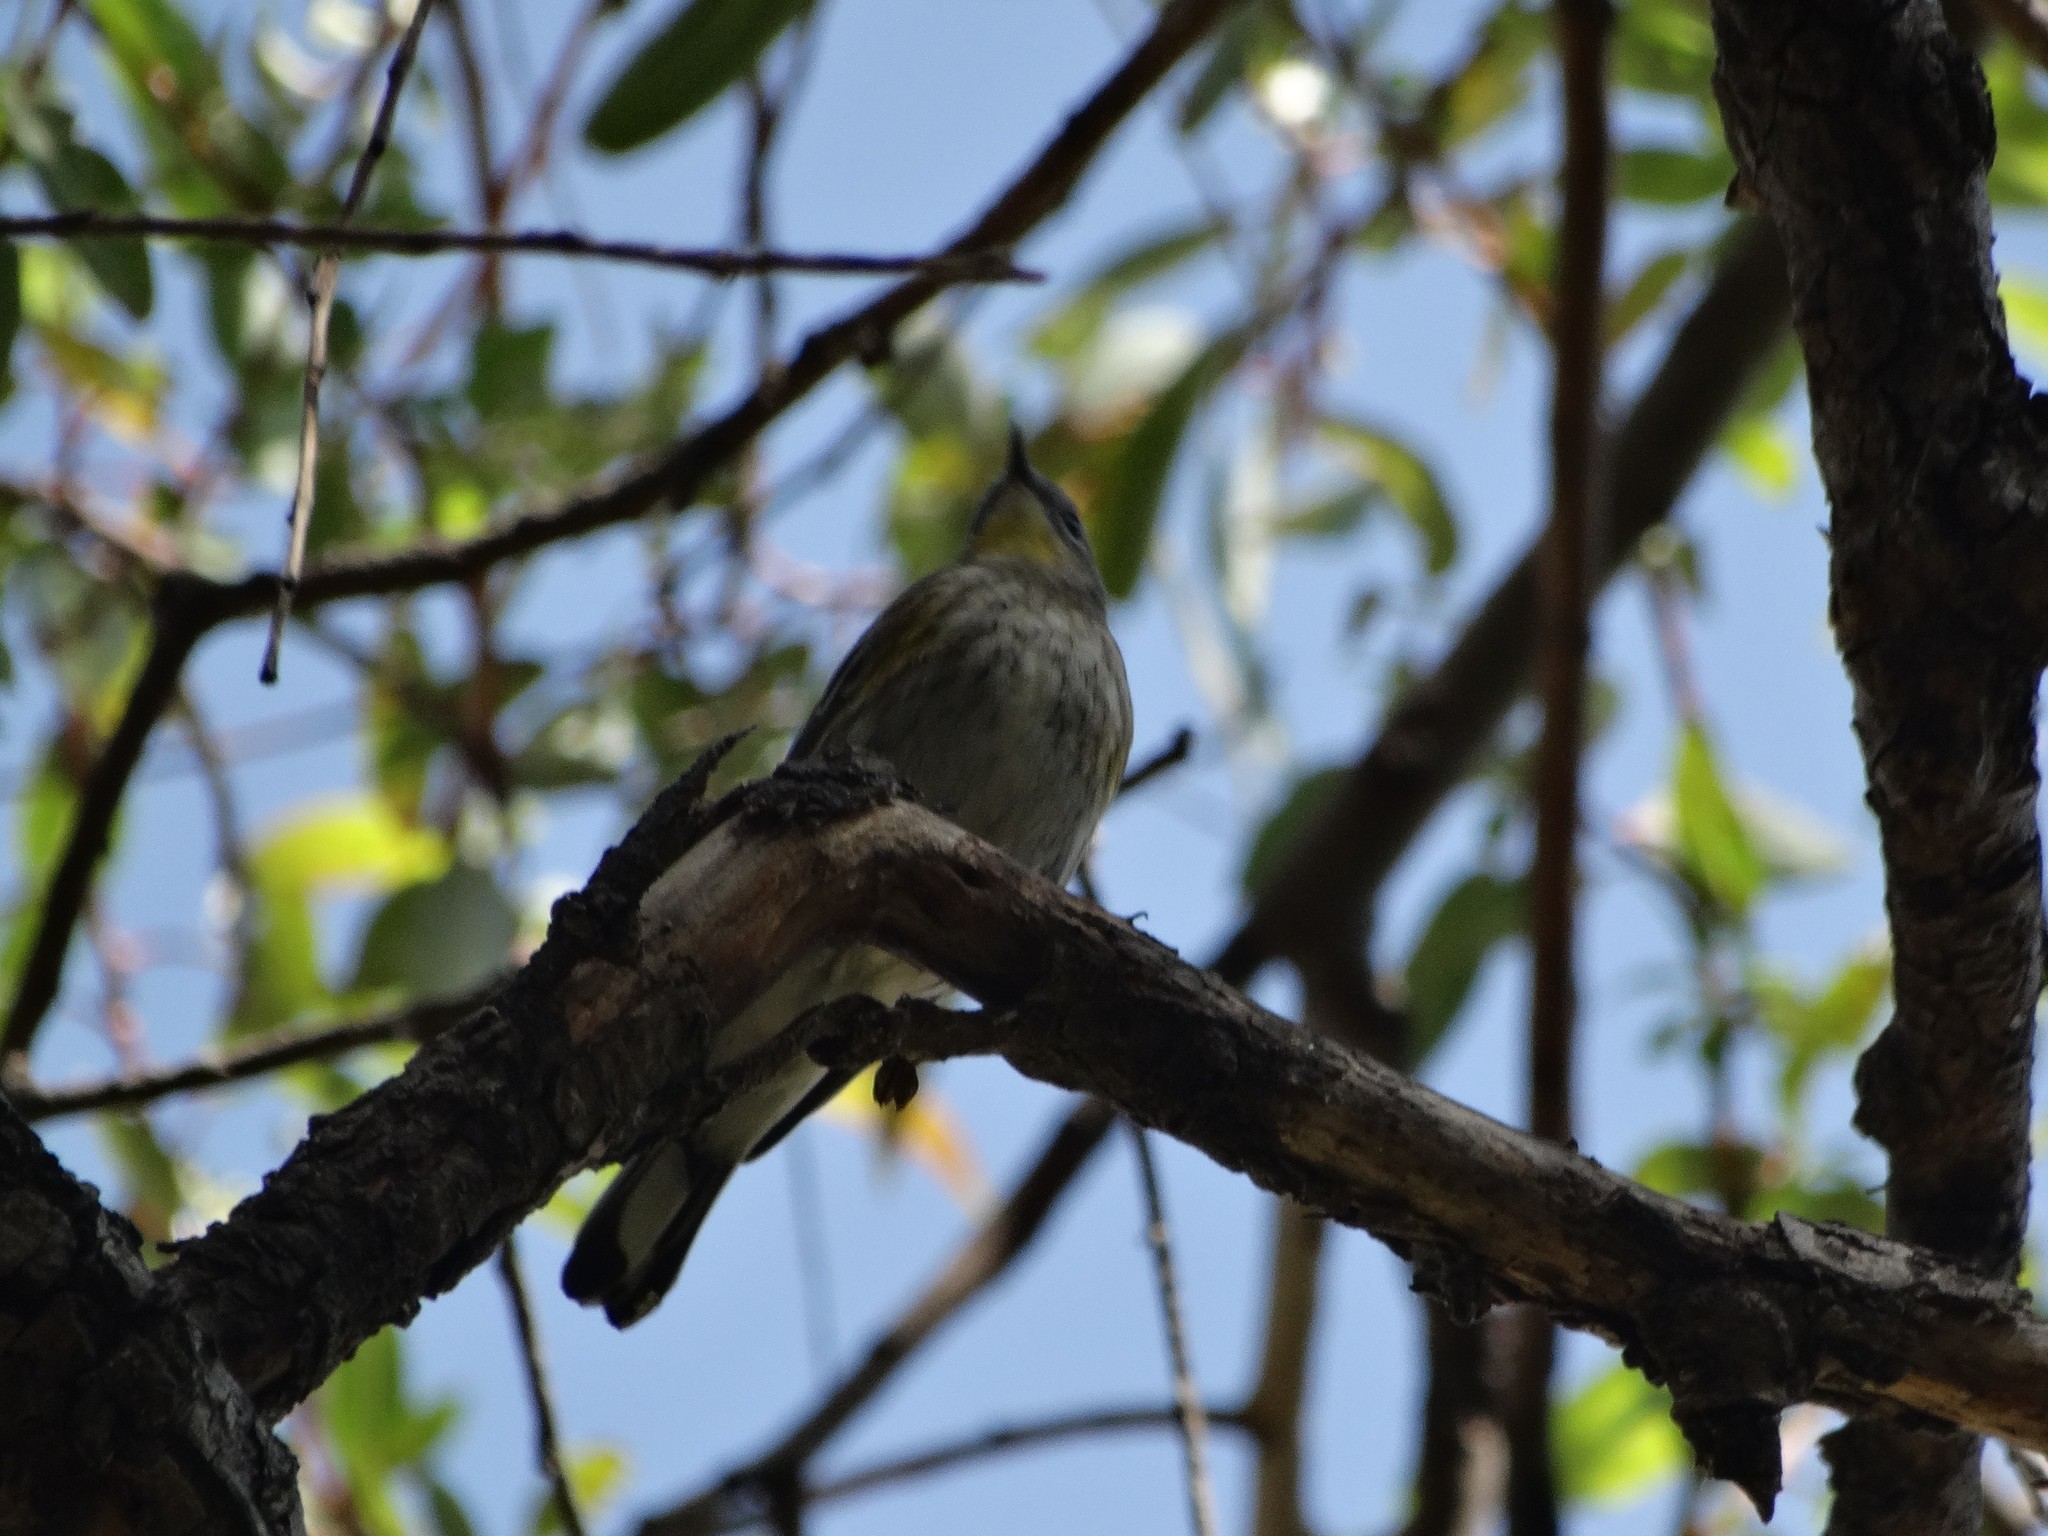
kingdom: Animalia
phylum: Chordata
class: Aves
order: Passeriformes
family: Parulidae
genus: Setophaga
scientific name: Setophaga coronata
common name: Myrtle warbler
